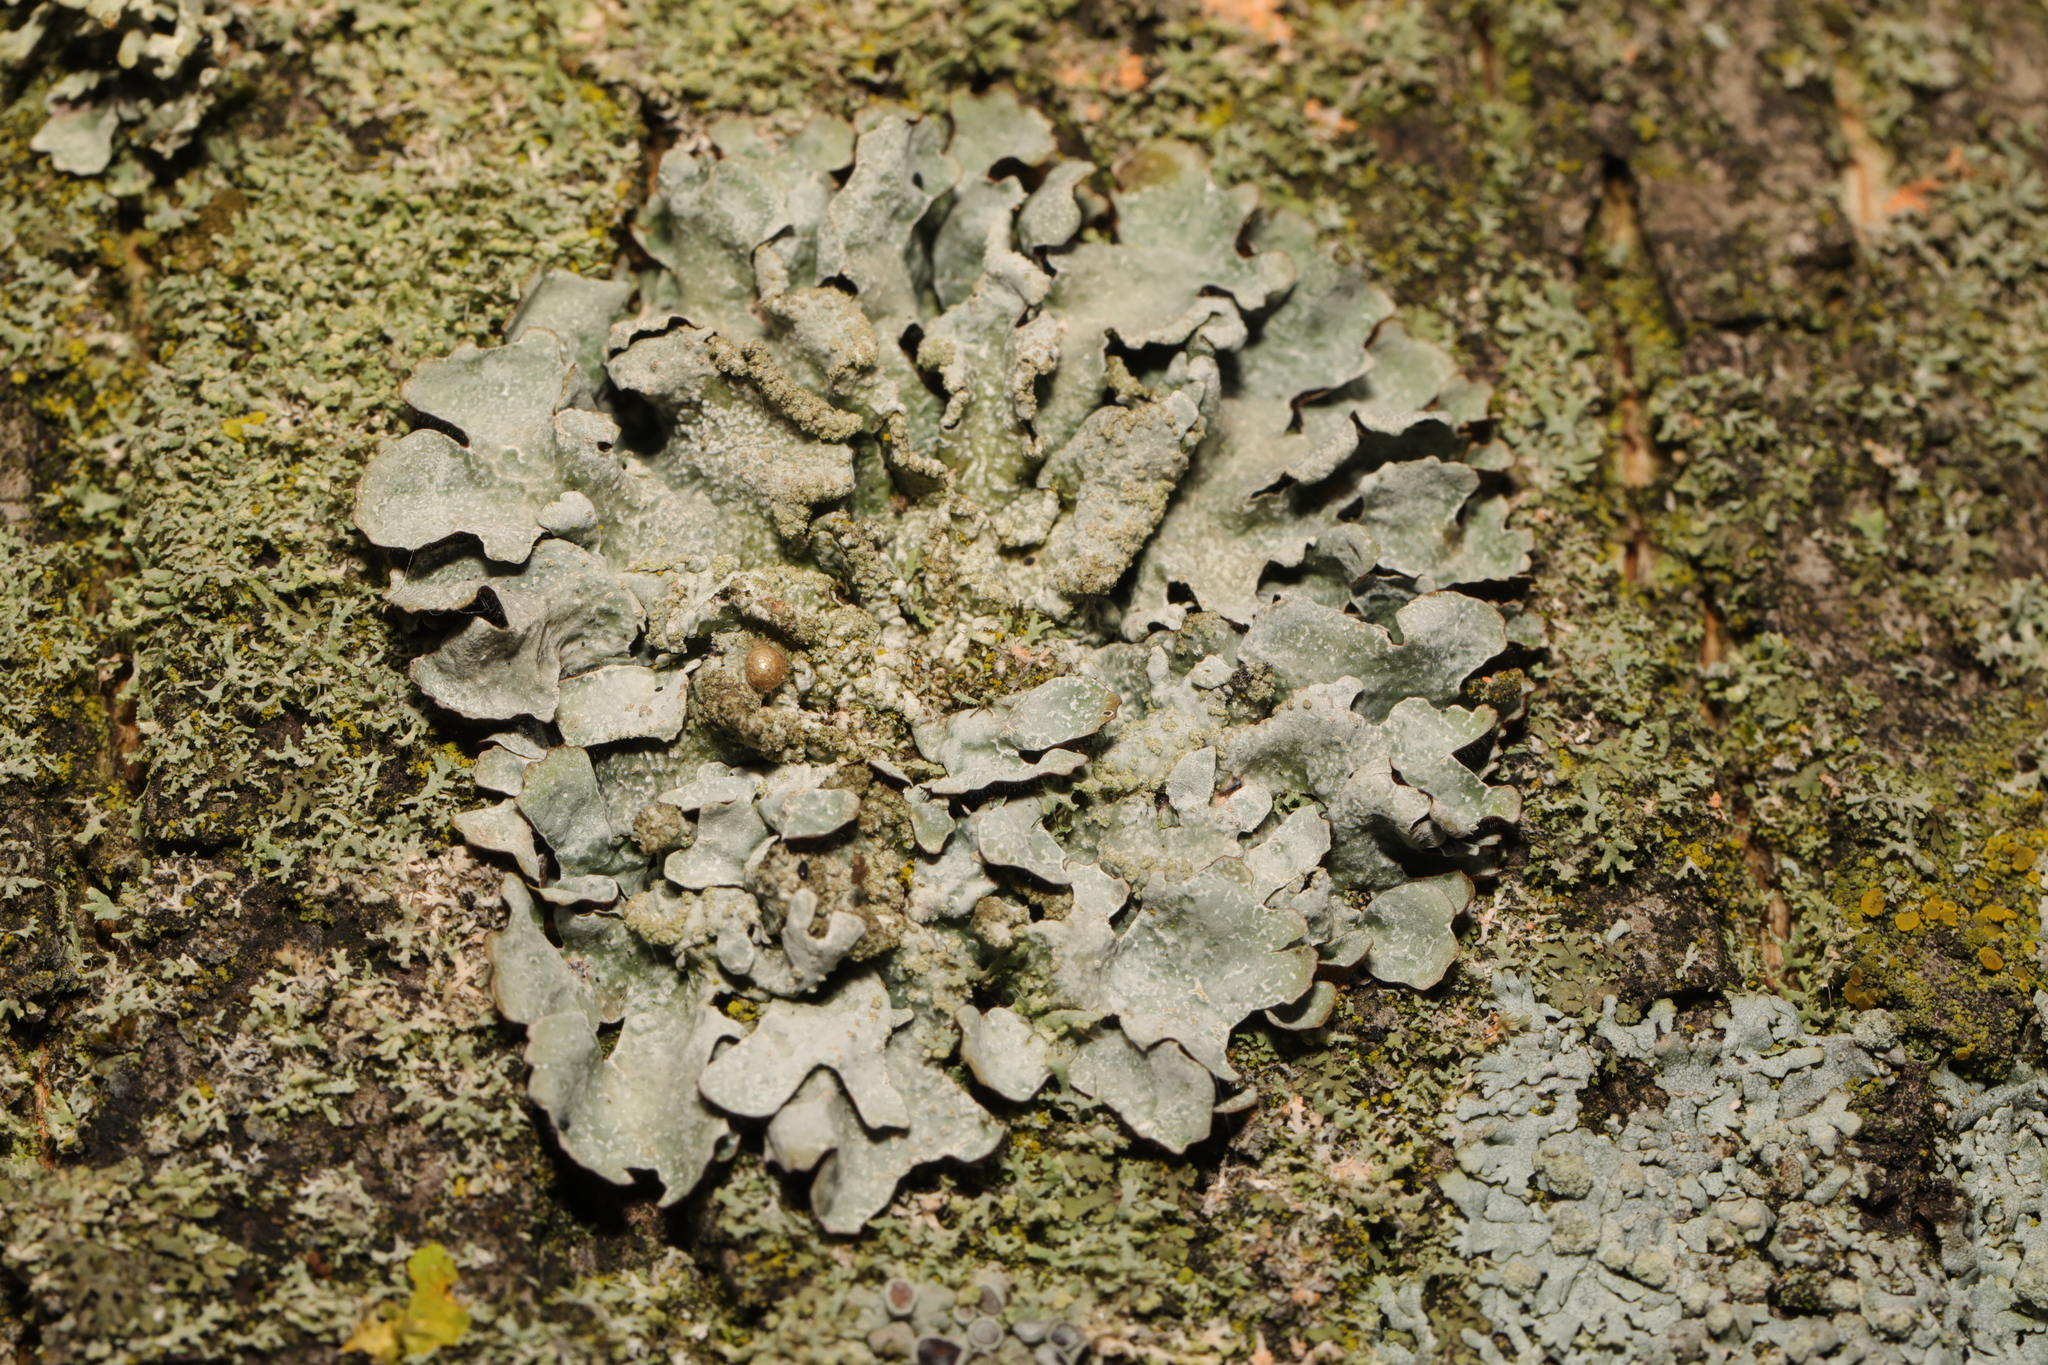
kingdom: Fungi
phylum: Ascomycota
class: Lecanoromycetes
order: Lecanorales
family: Parmeliaceae
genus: Parmelia
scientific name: Parmelia sulcata
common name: Netted shield lichen
